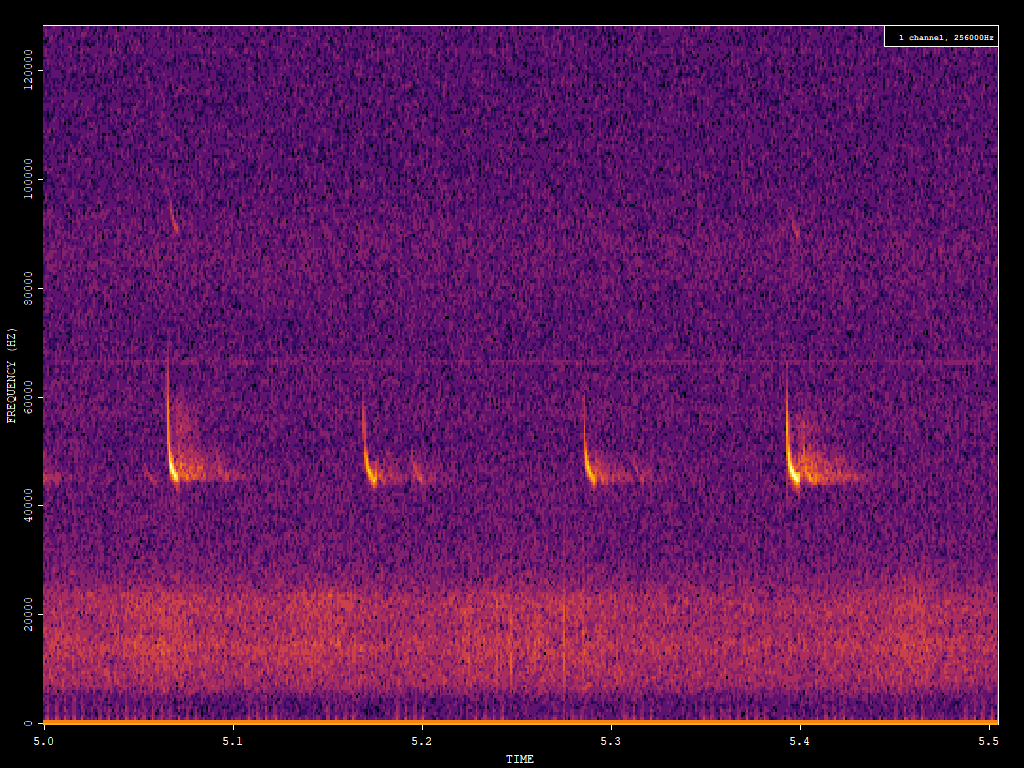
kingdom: Animalia
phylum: Chordata
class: Mammalia
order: Chiroptera
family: Vespertilionidae
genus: Pipistrellus
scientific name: Pipistrellus pipistrellus
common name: Common pipistrelle
